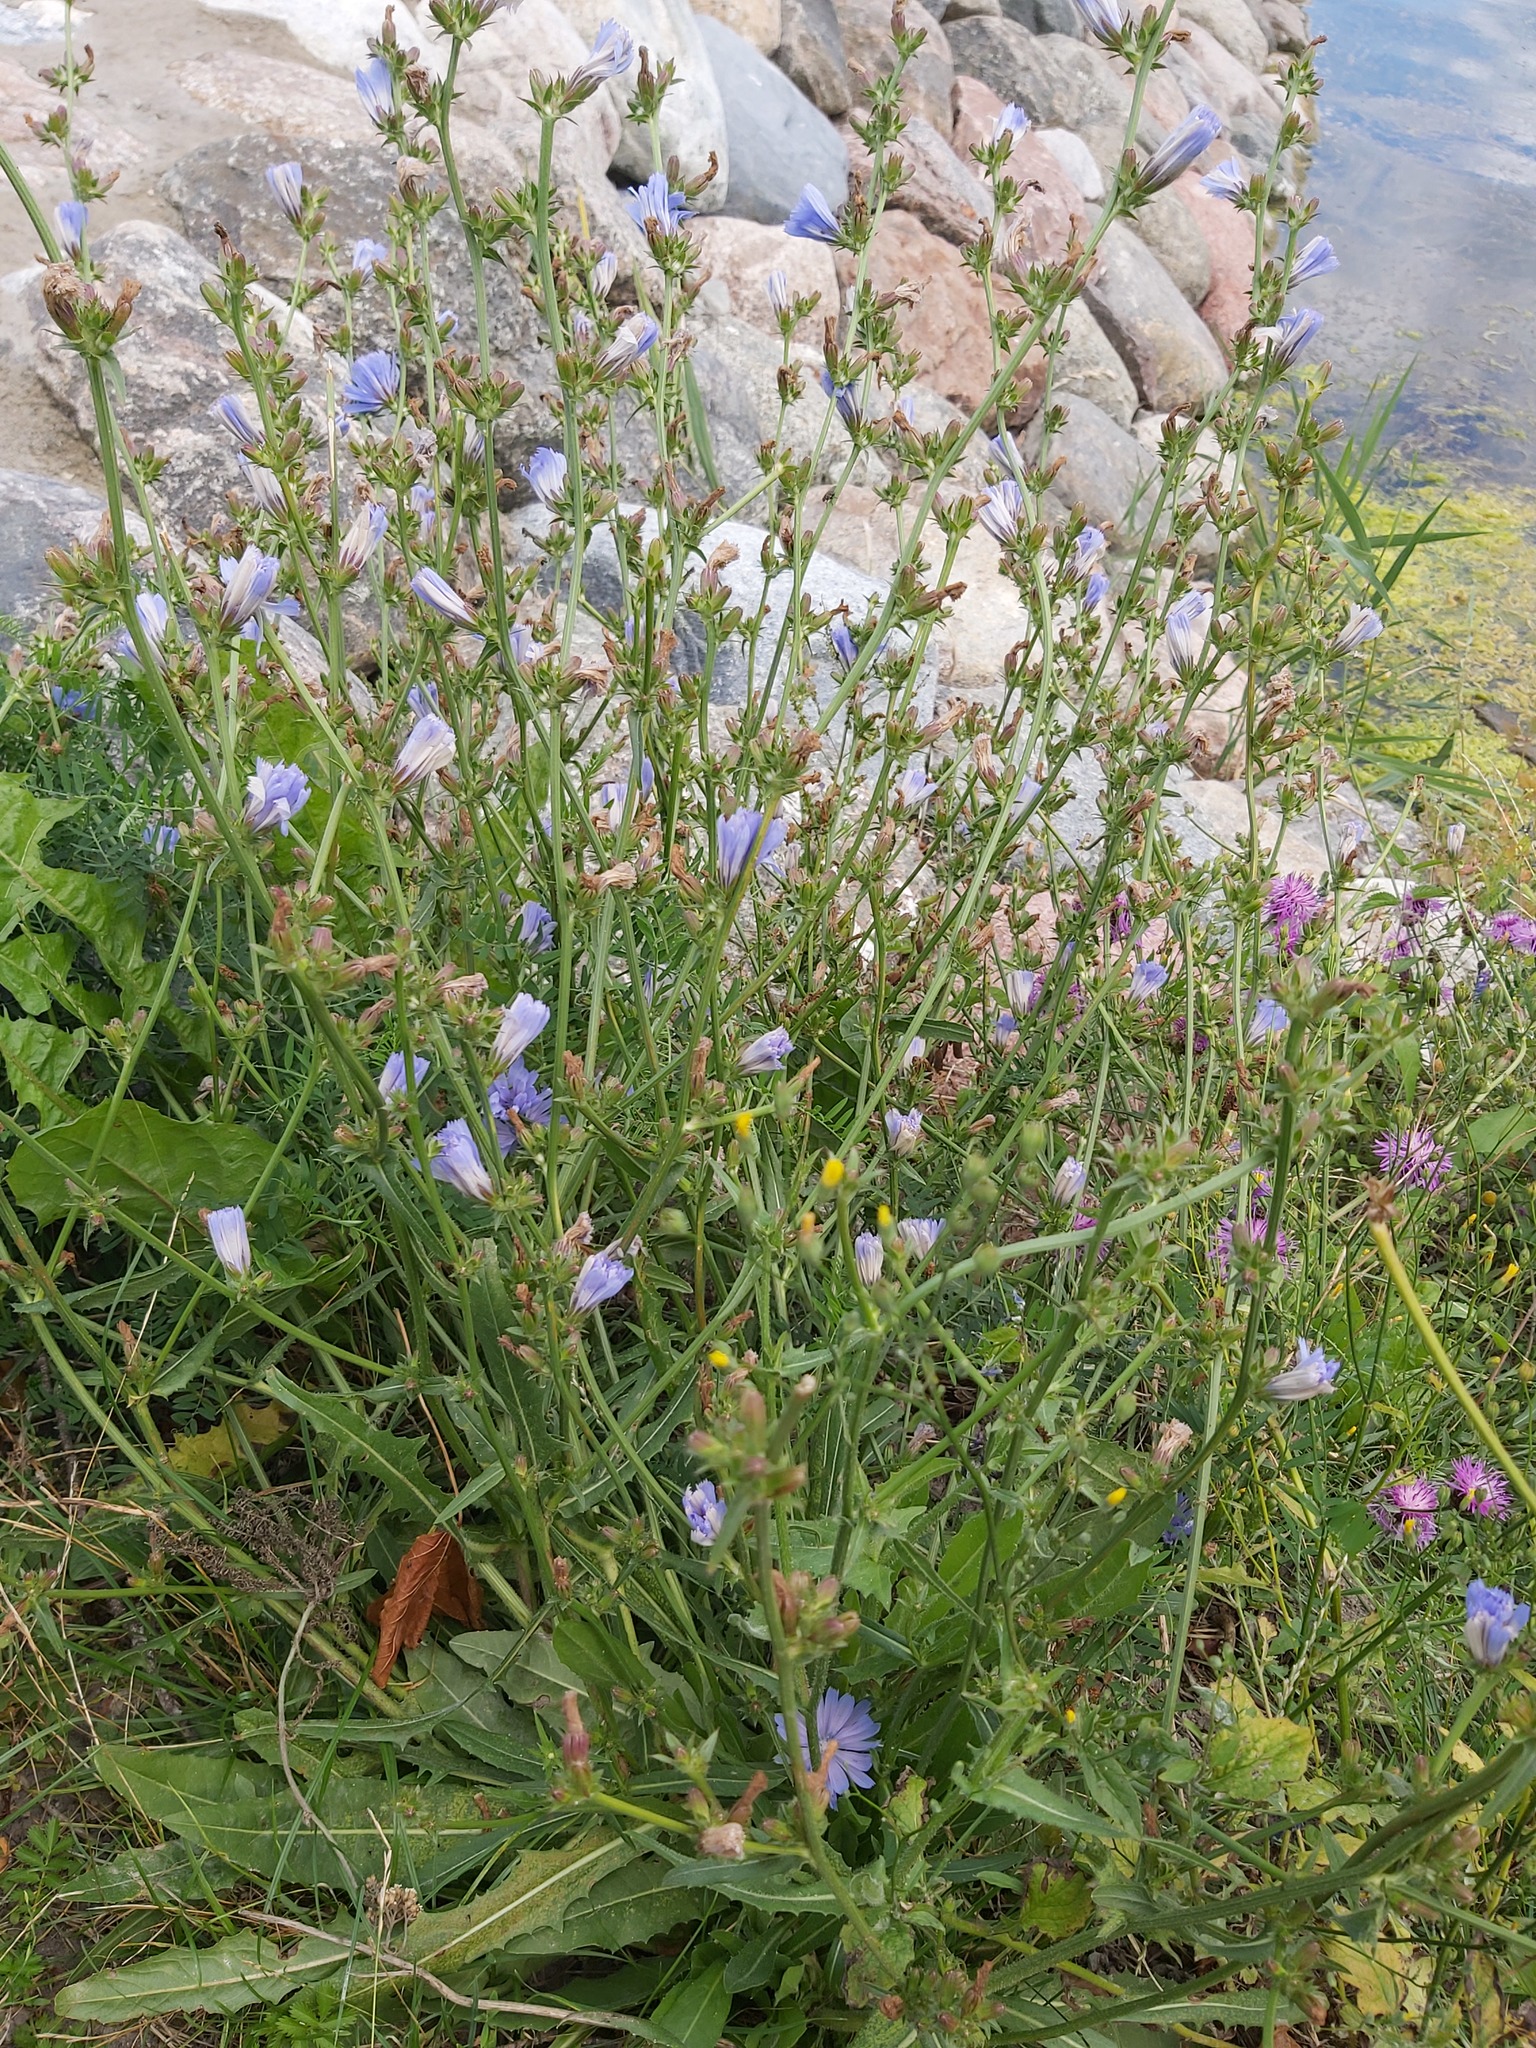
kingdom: Plantae
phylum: Tracheophyta
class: Magnoliopsida
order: Asterales
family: Asteraceae
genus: Cichorium
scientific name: Cichorium intybus
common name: Chicory
